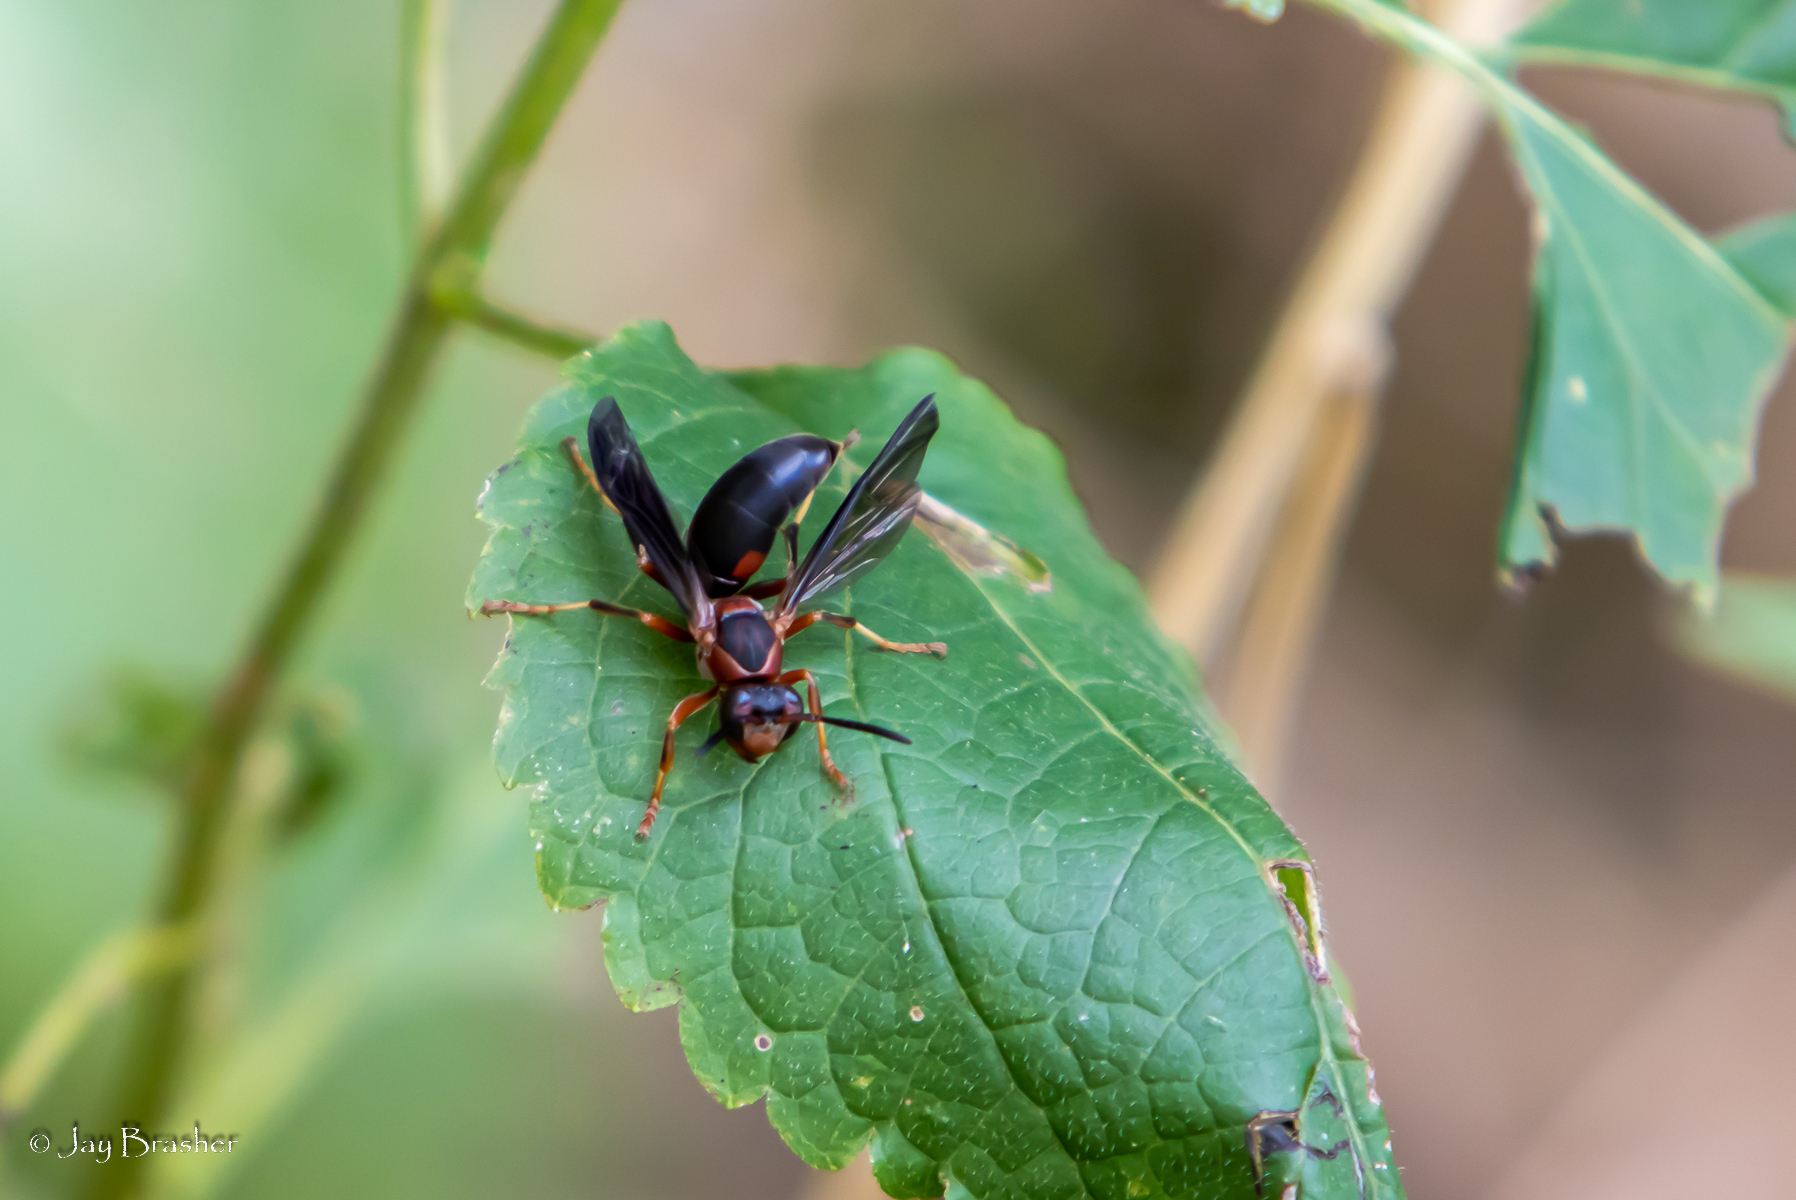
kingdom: Animalia
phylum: Arthropoda
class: Insecta
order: Hymenoptera
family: Eumenidae
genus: Polistes
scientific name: Polistes metricus
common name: Metric paper wasp
